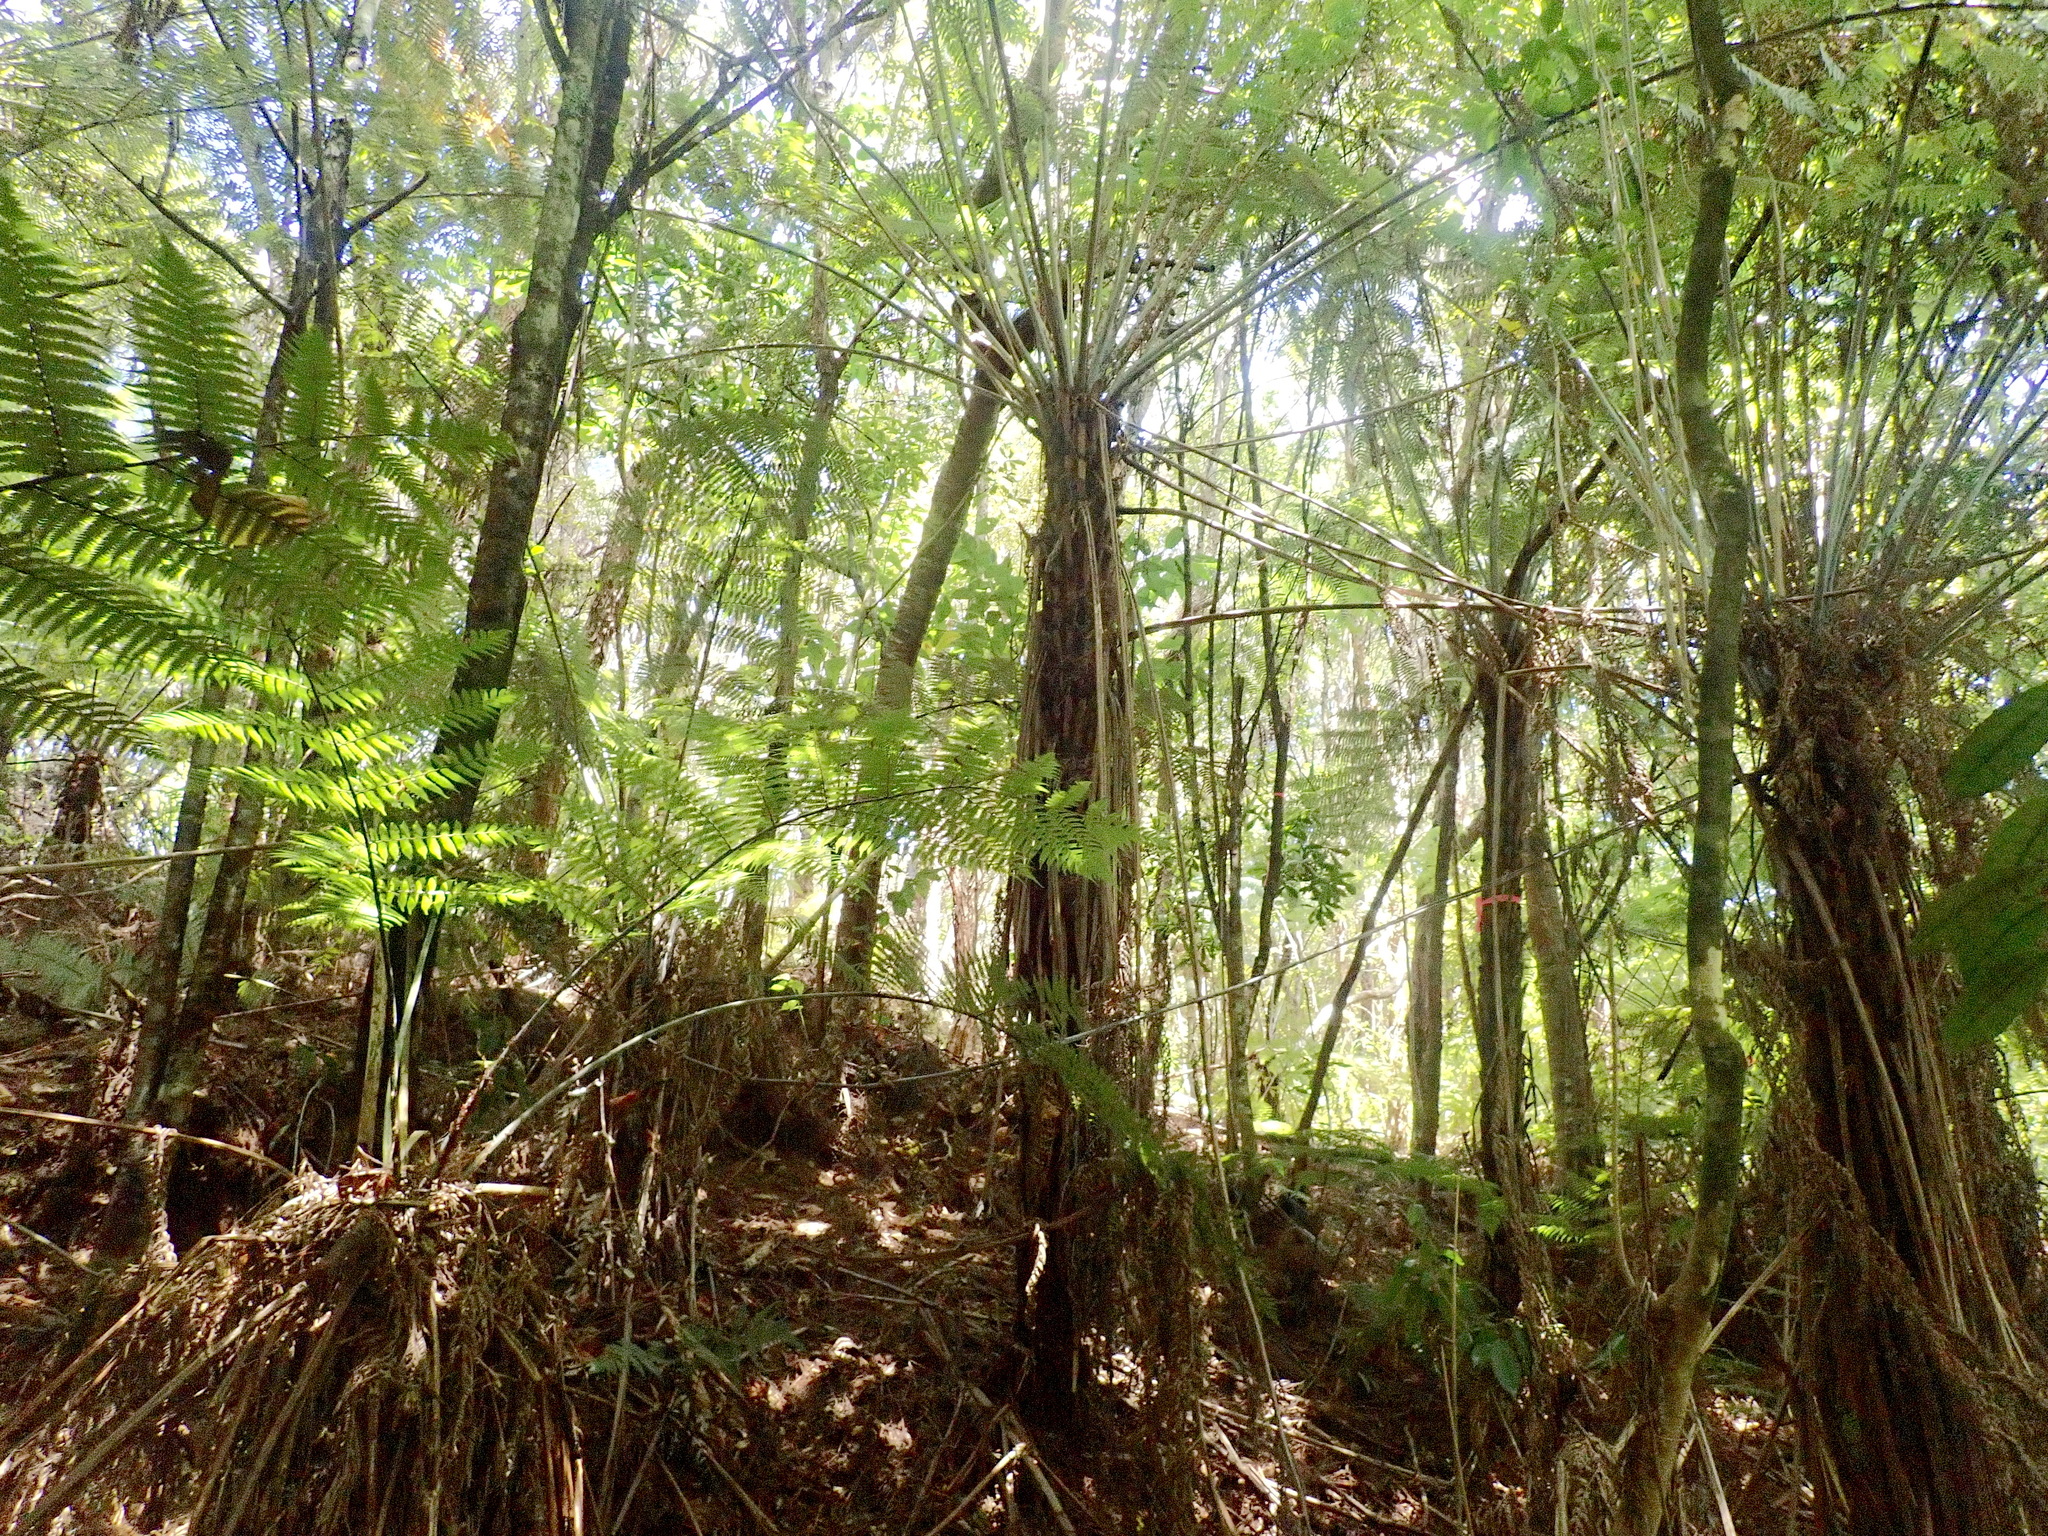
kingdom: Plantae
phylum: Tracheophyta
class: Polypodiopsida
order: Cyatheales
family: Cyatheaceae
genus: Alsophila
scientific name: Alsophila dealbata
